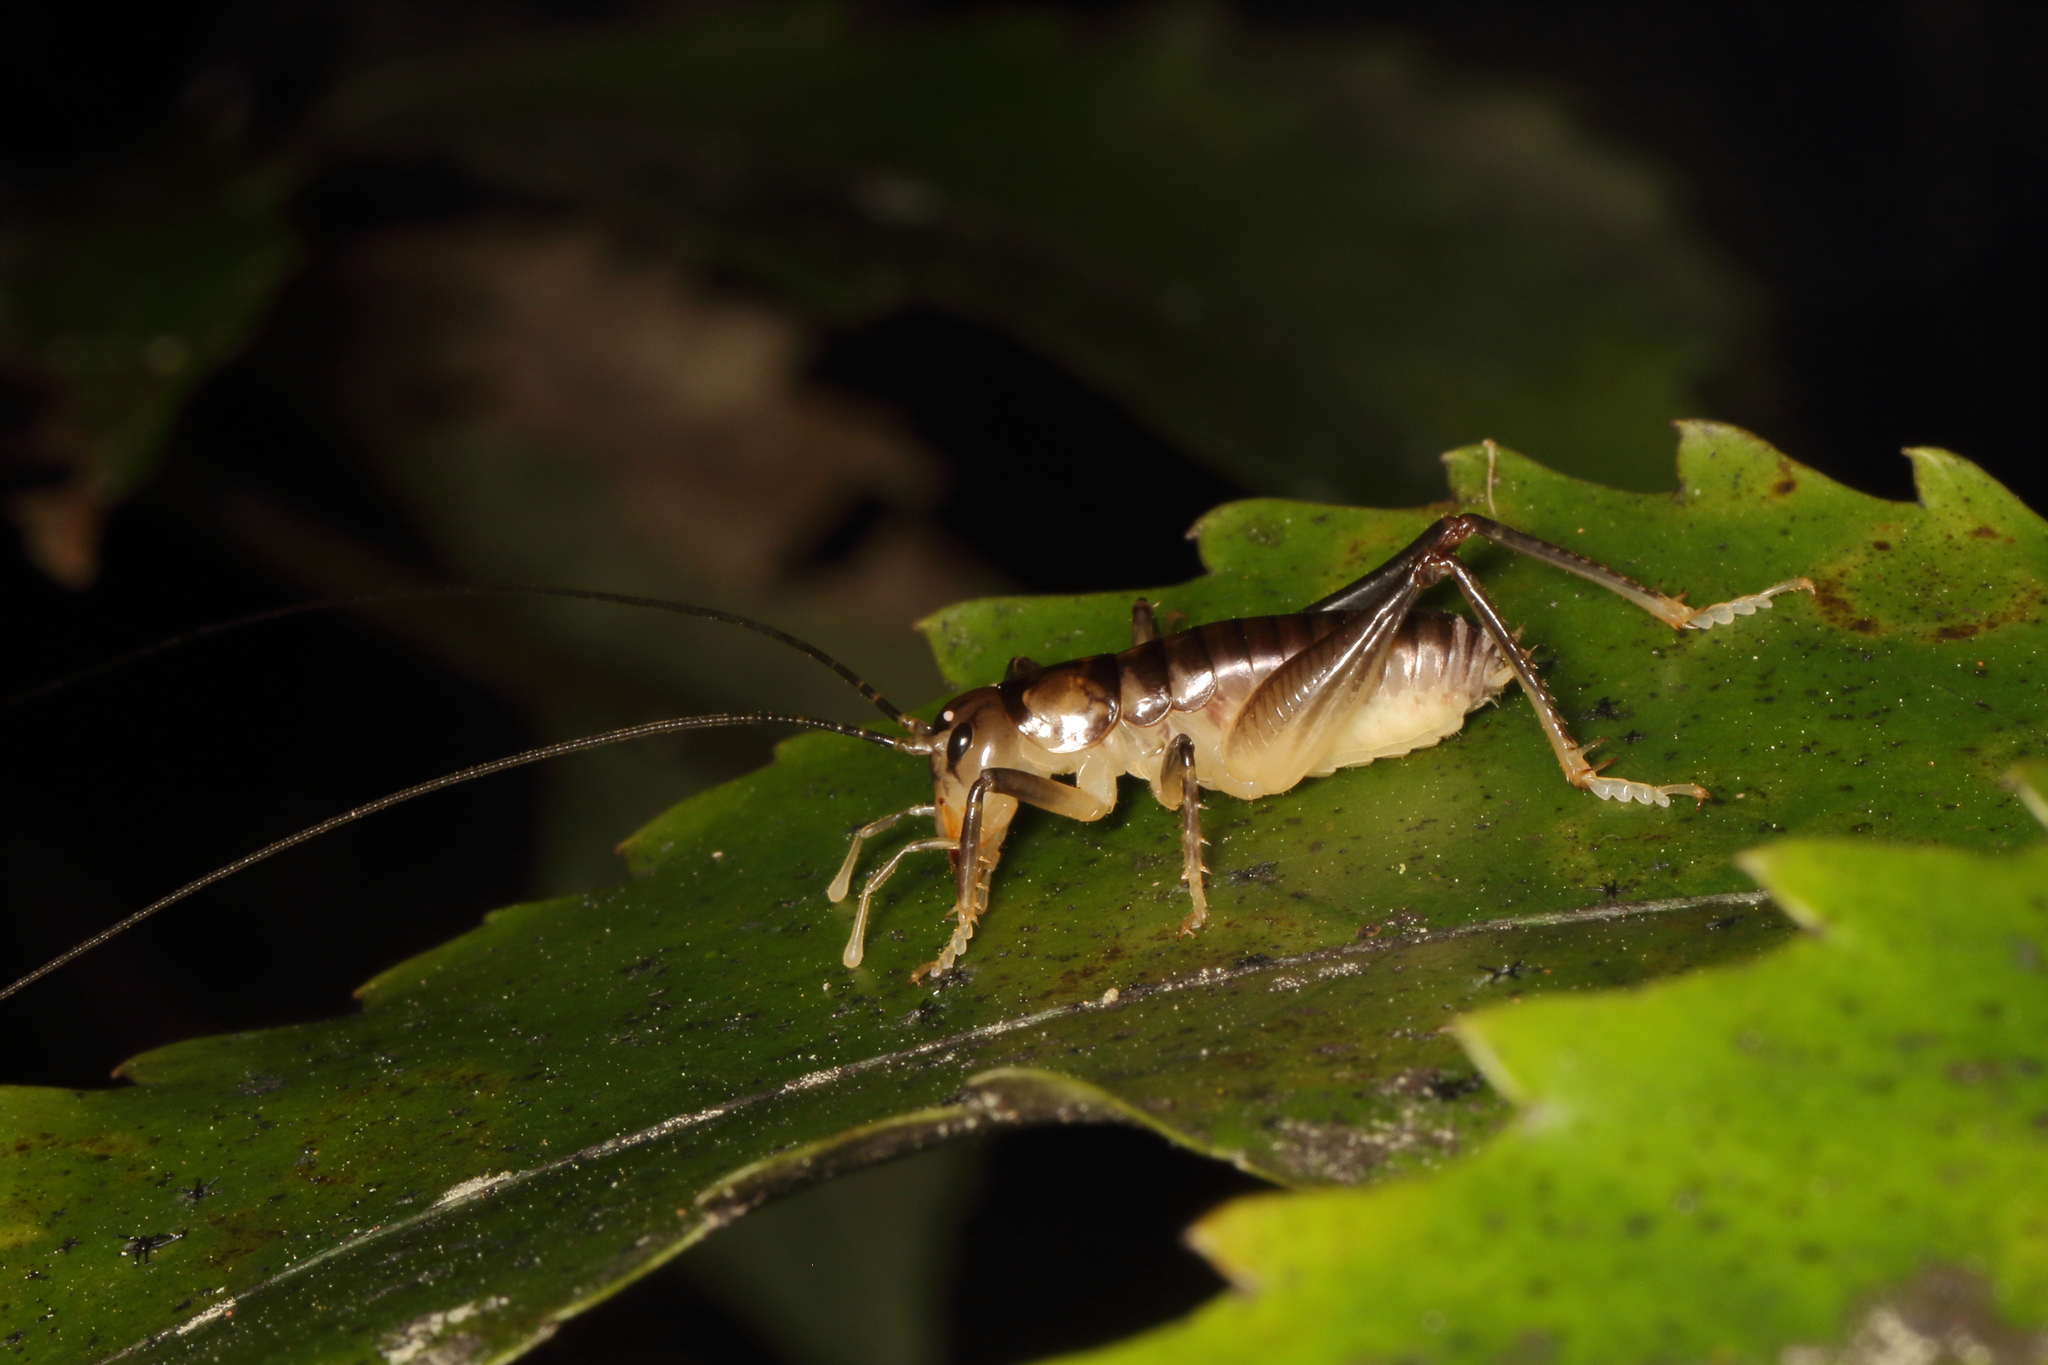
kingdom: Animalia
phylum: Arthropoda
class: Insecta
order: Orthoptera
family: Anostostomatidae
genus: Hemiandrus
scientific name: Hemiandrus pallitarsis
